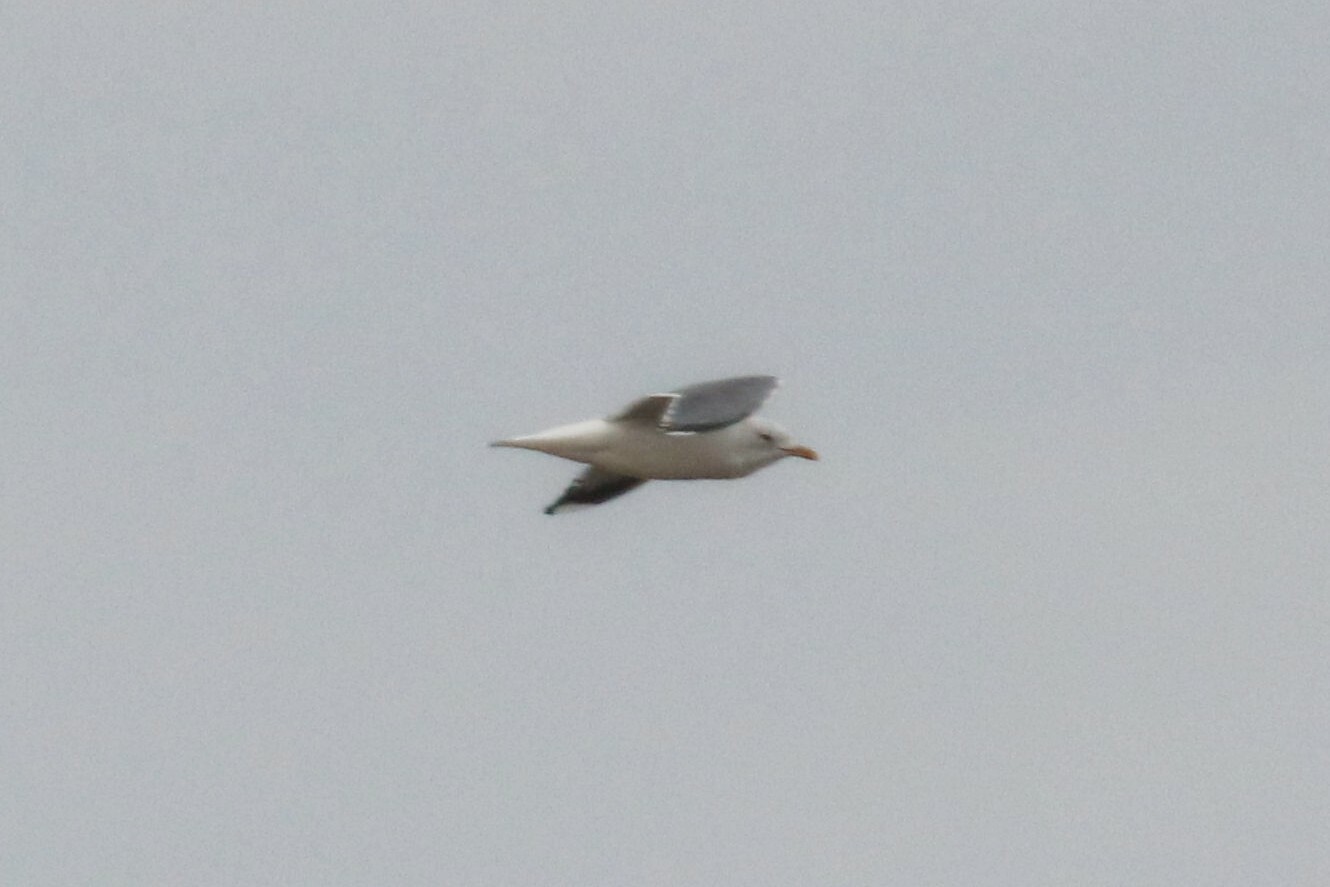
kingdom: Animalia
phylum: Chordata
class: Aves
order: Charadriiformes
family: Laridae
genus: Larus
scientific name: Larus canus
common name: Mew gull
